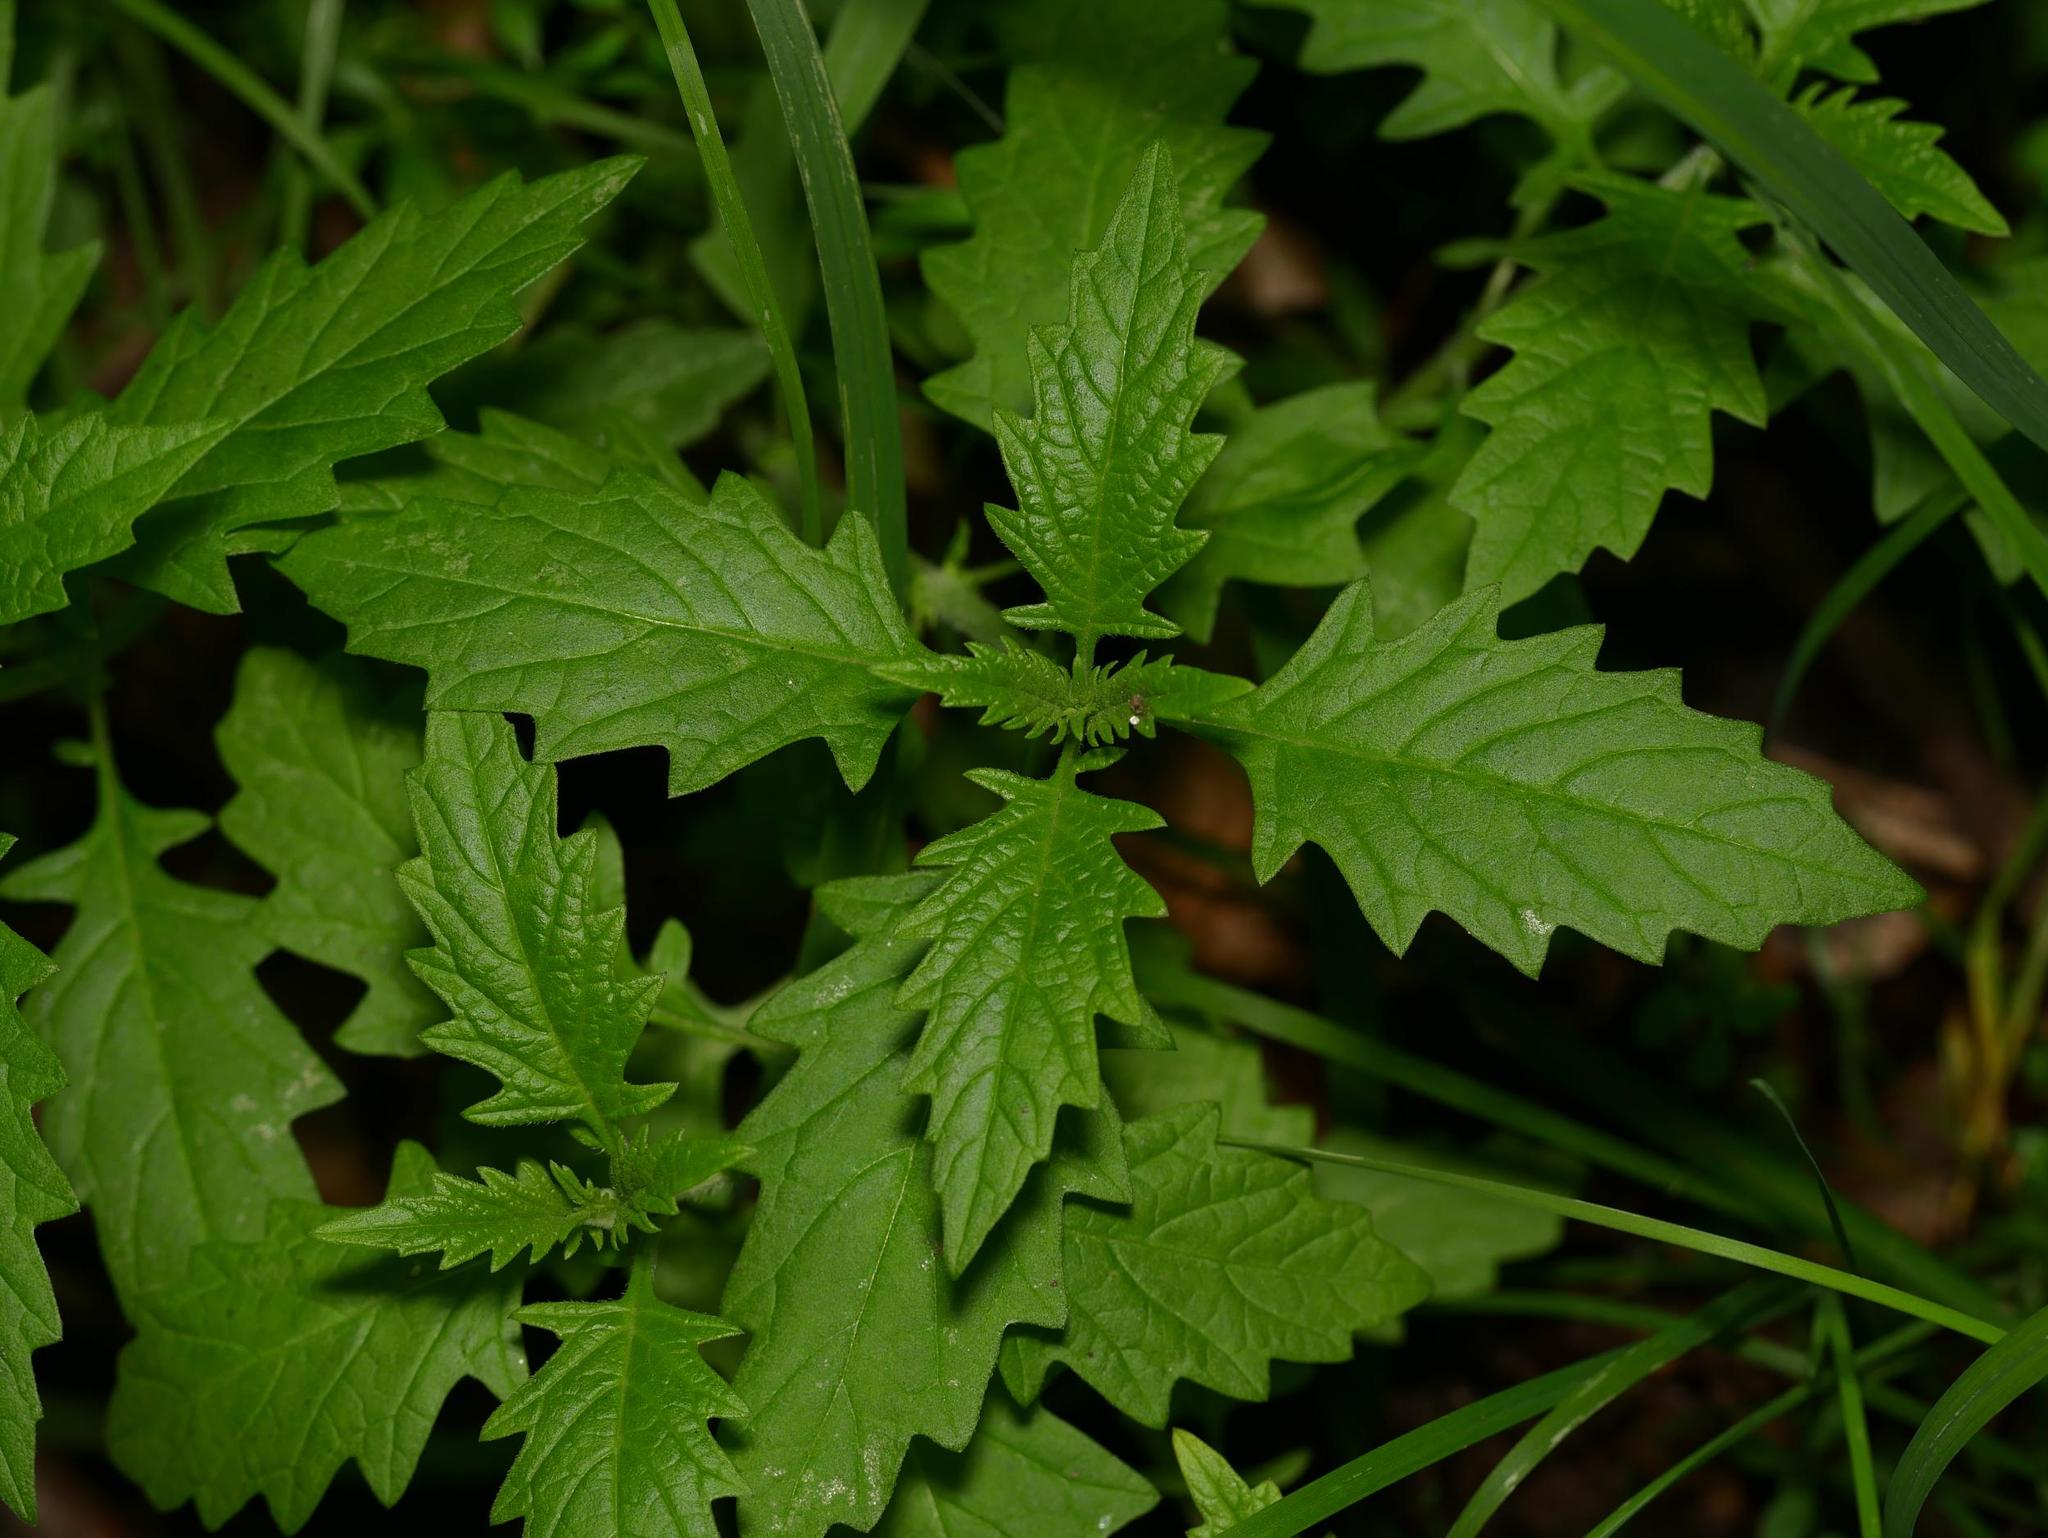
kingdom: Plantae
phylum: Tracheophyta
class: Magnoliopsida
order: Lamiales
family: Lamiaceae
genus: Lycopus
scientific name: Lycopus europaeus
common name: European bugleweed
